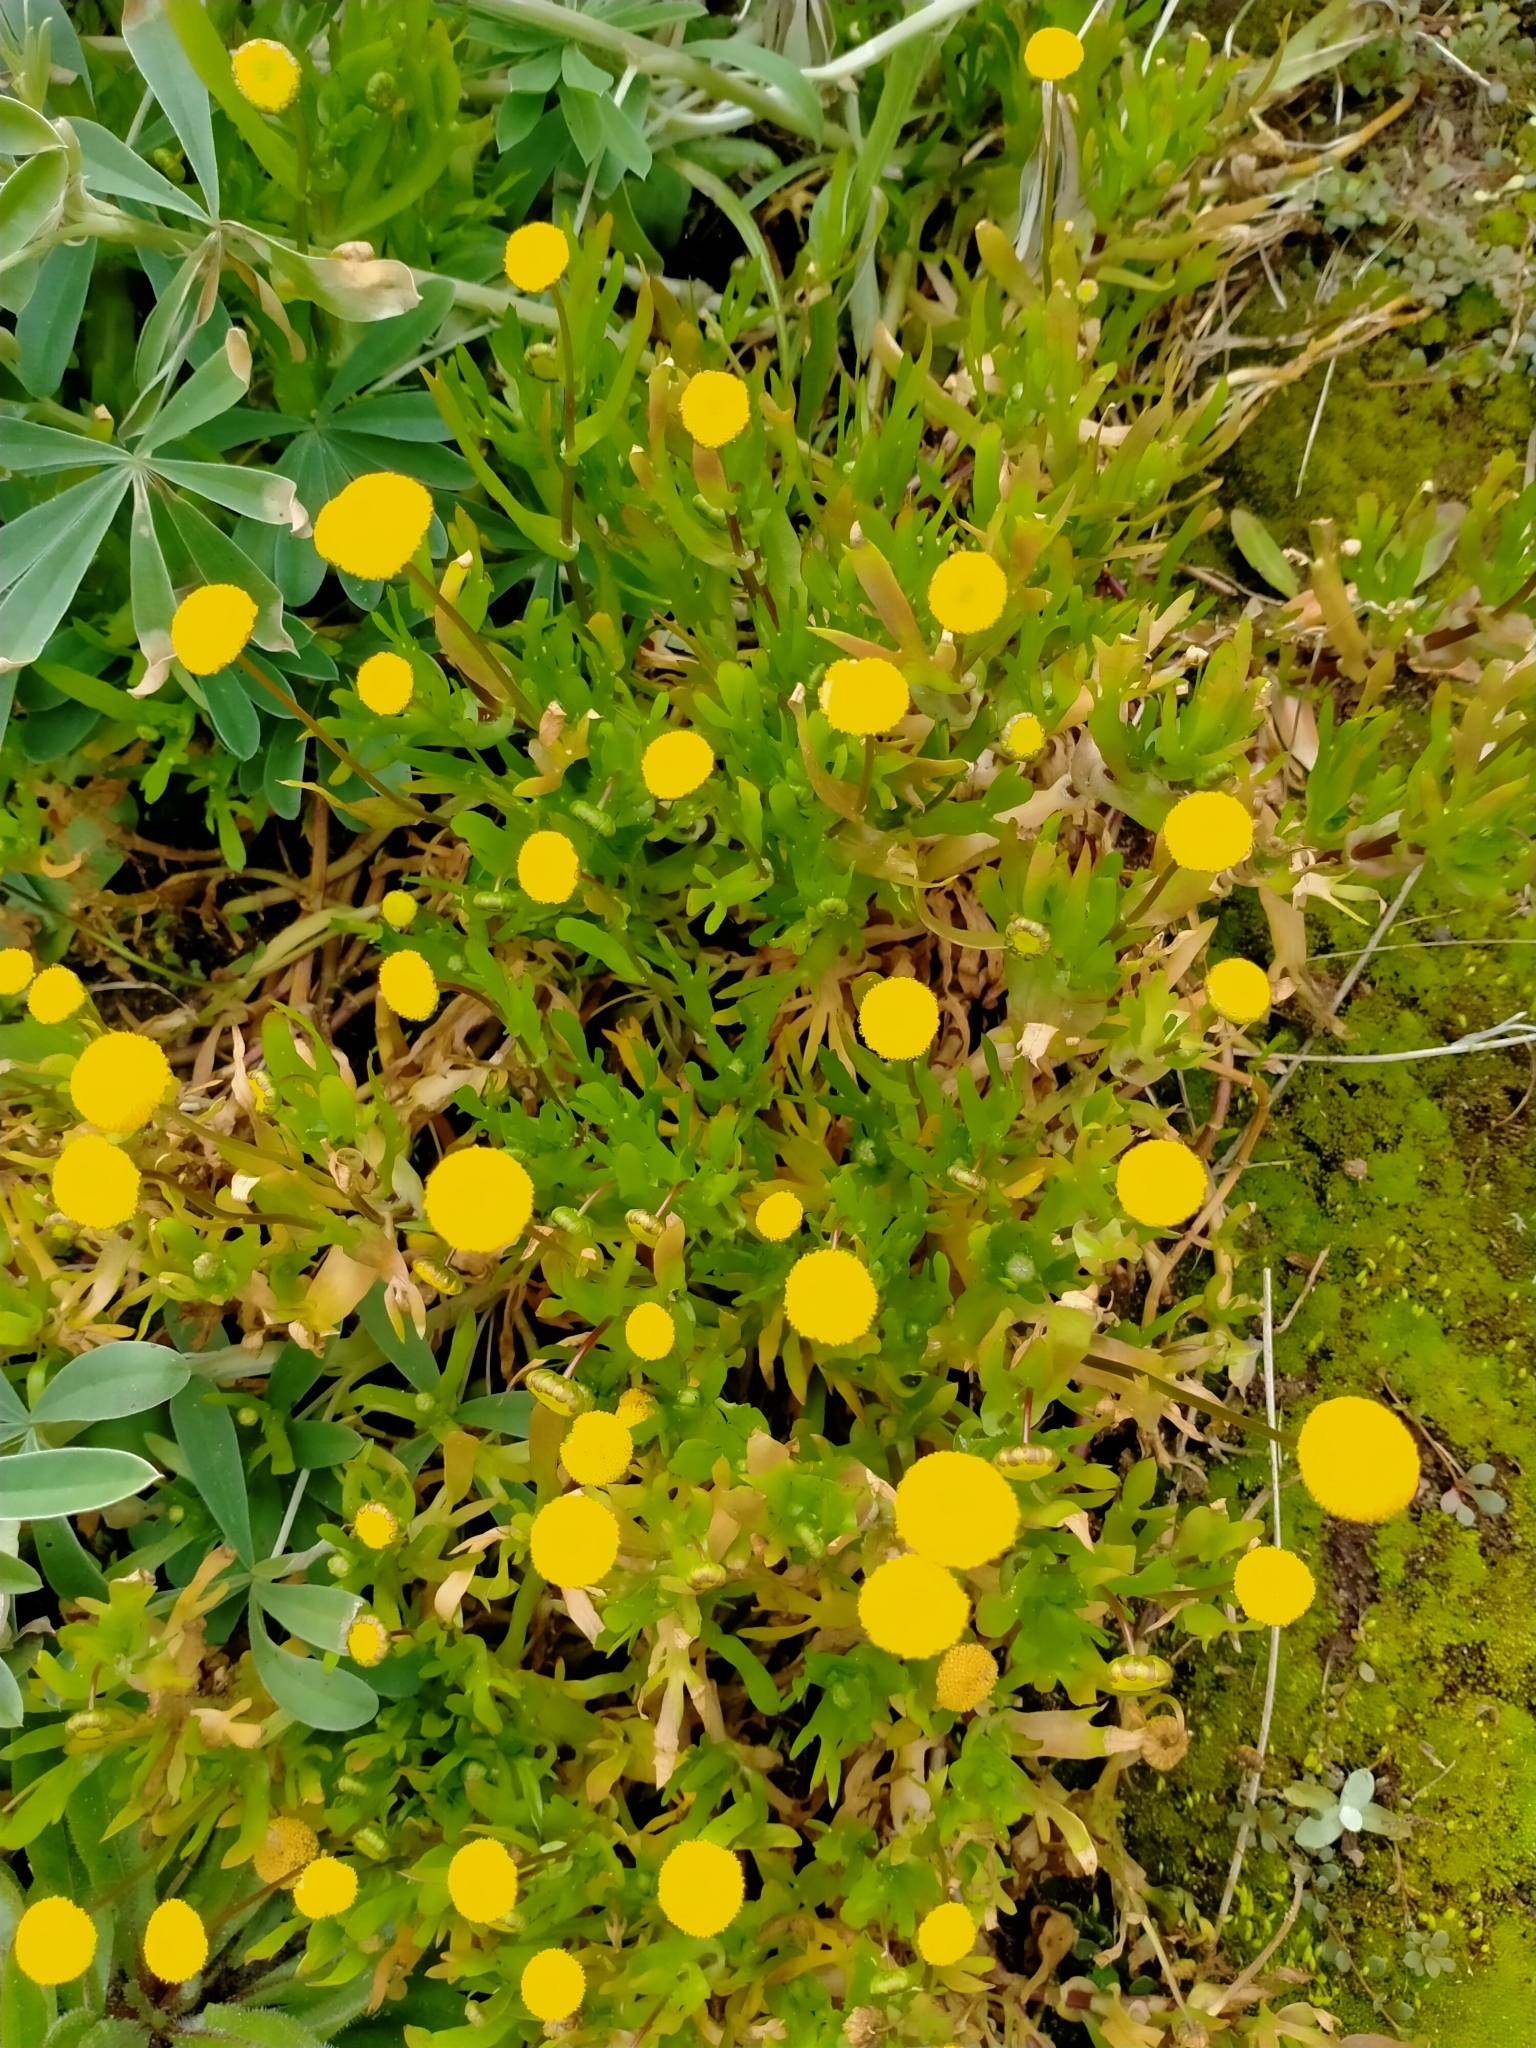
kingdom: Plantae
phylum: Tracheophyta
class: Magnoliopsida
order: Asterales
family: Asteraceae
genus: Cotula
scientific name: Cotula coronopifolia
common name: Buttonweed
